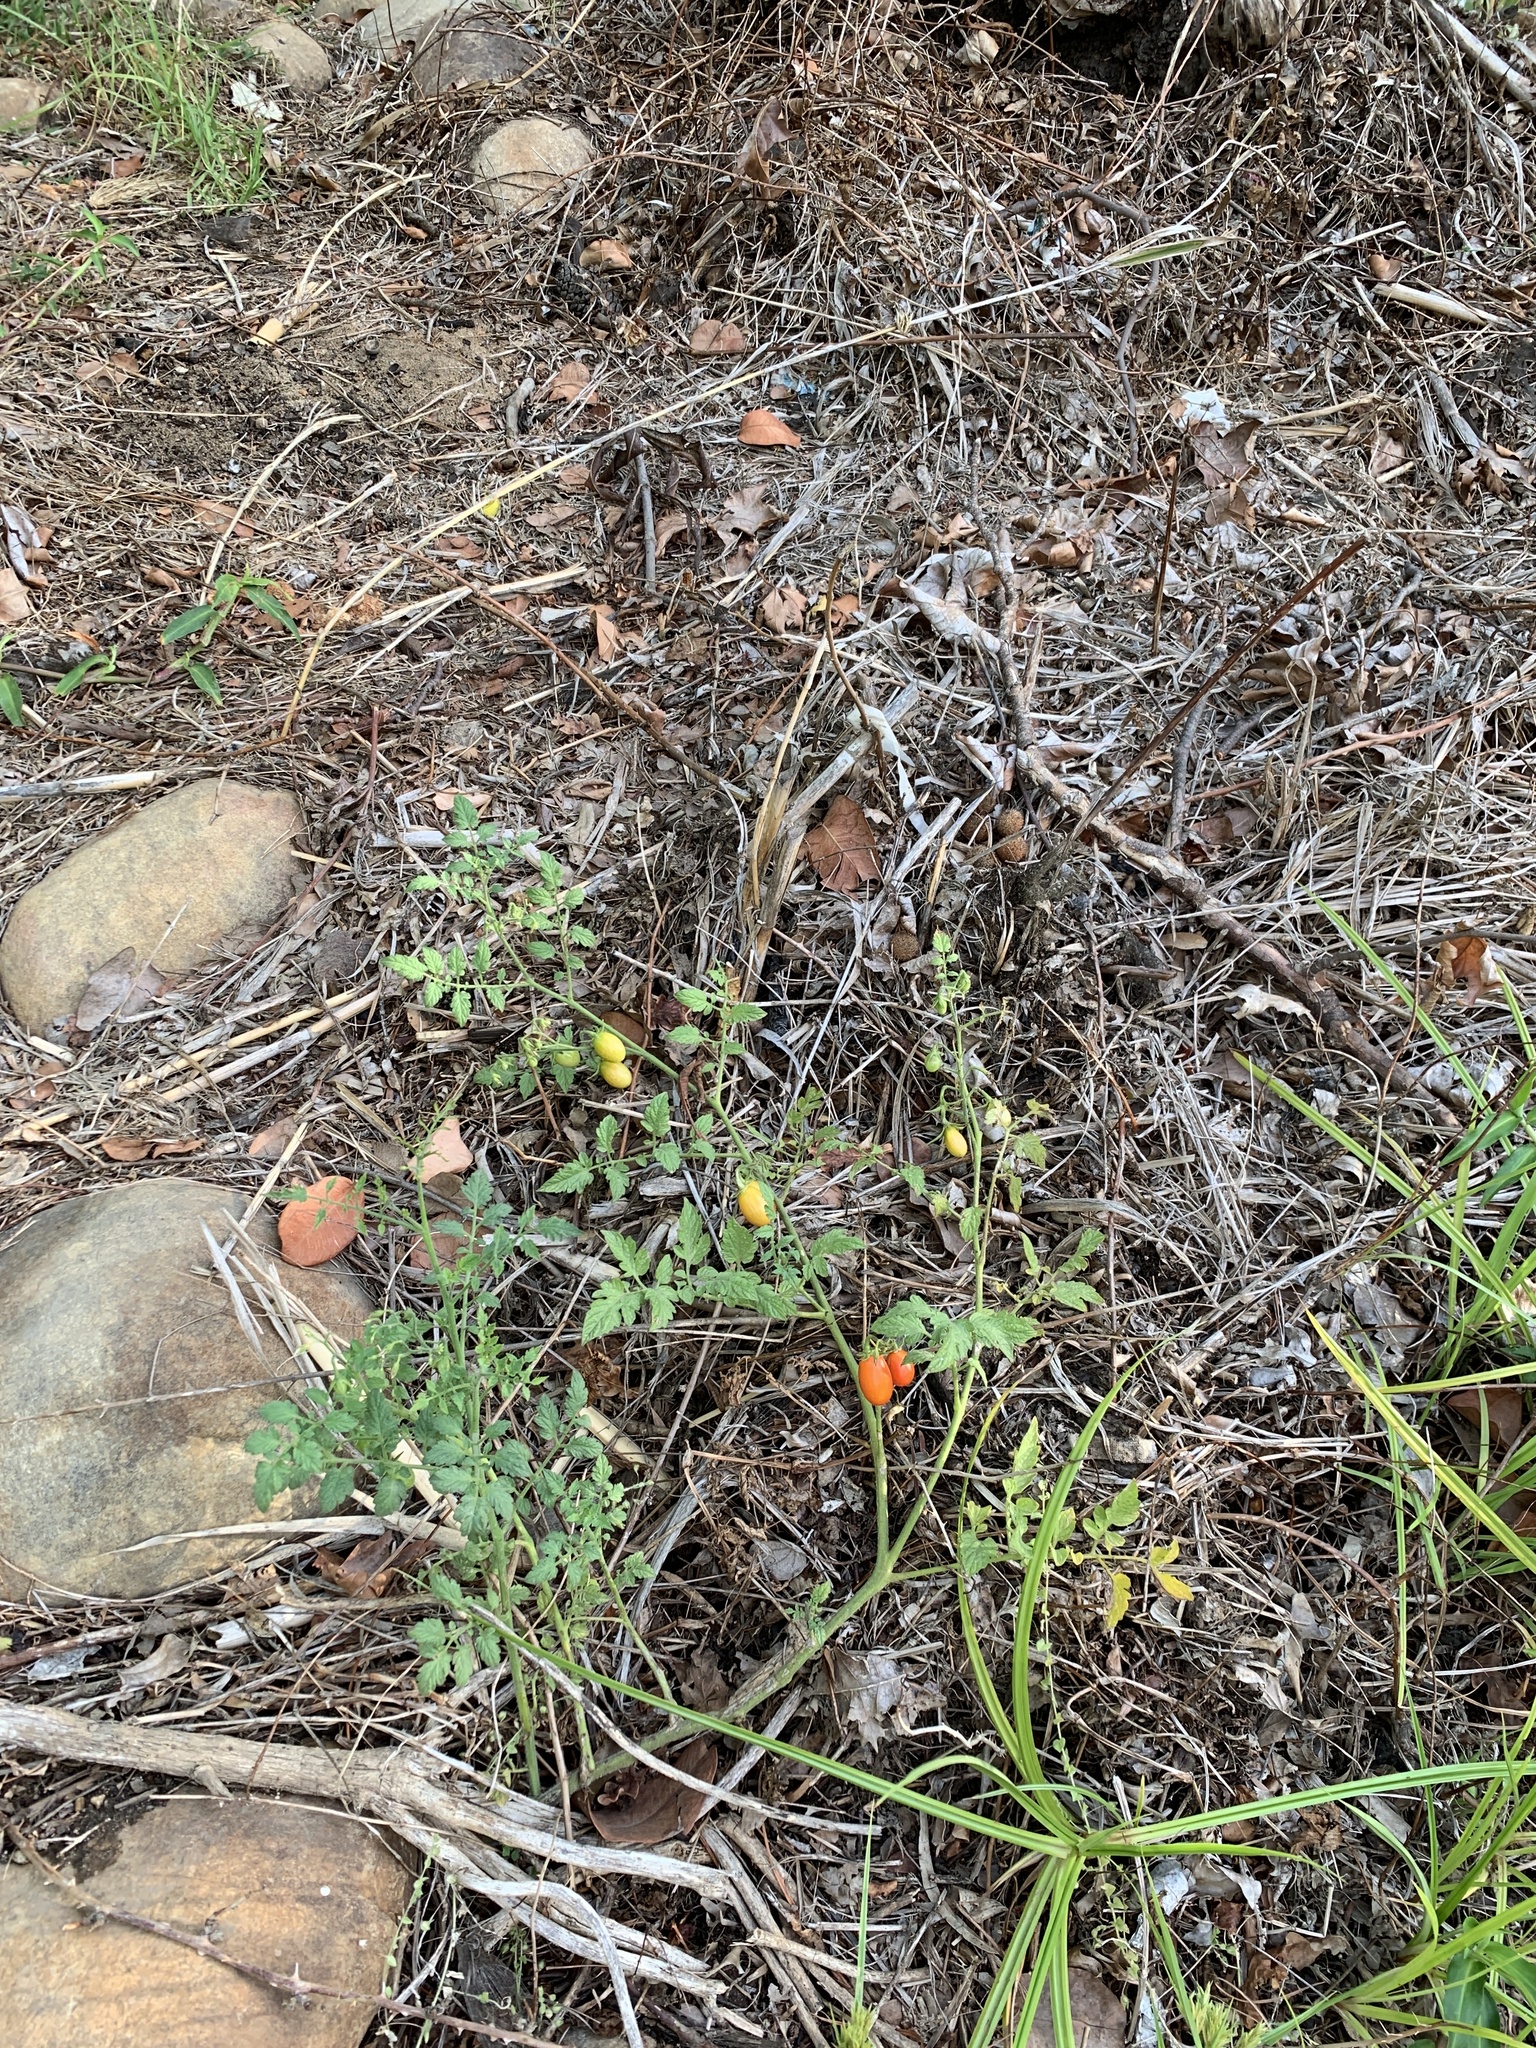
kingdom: Plantae
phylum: Tracheophyta
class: Magnoliopsida
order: Solanales
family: Solanaceae
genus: Solanum
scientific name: Solanum lycopersicum
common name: Garden tomato
